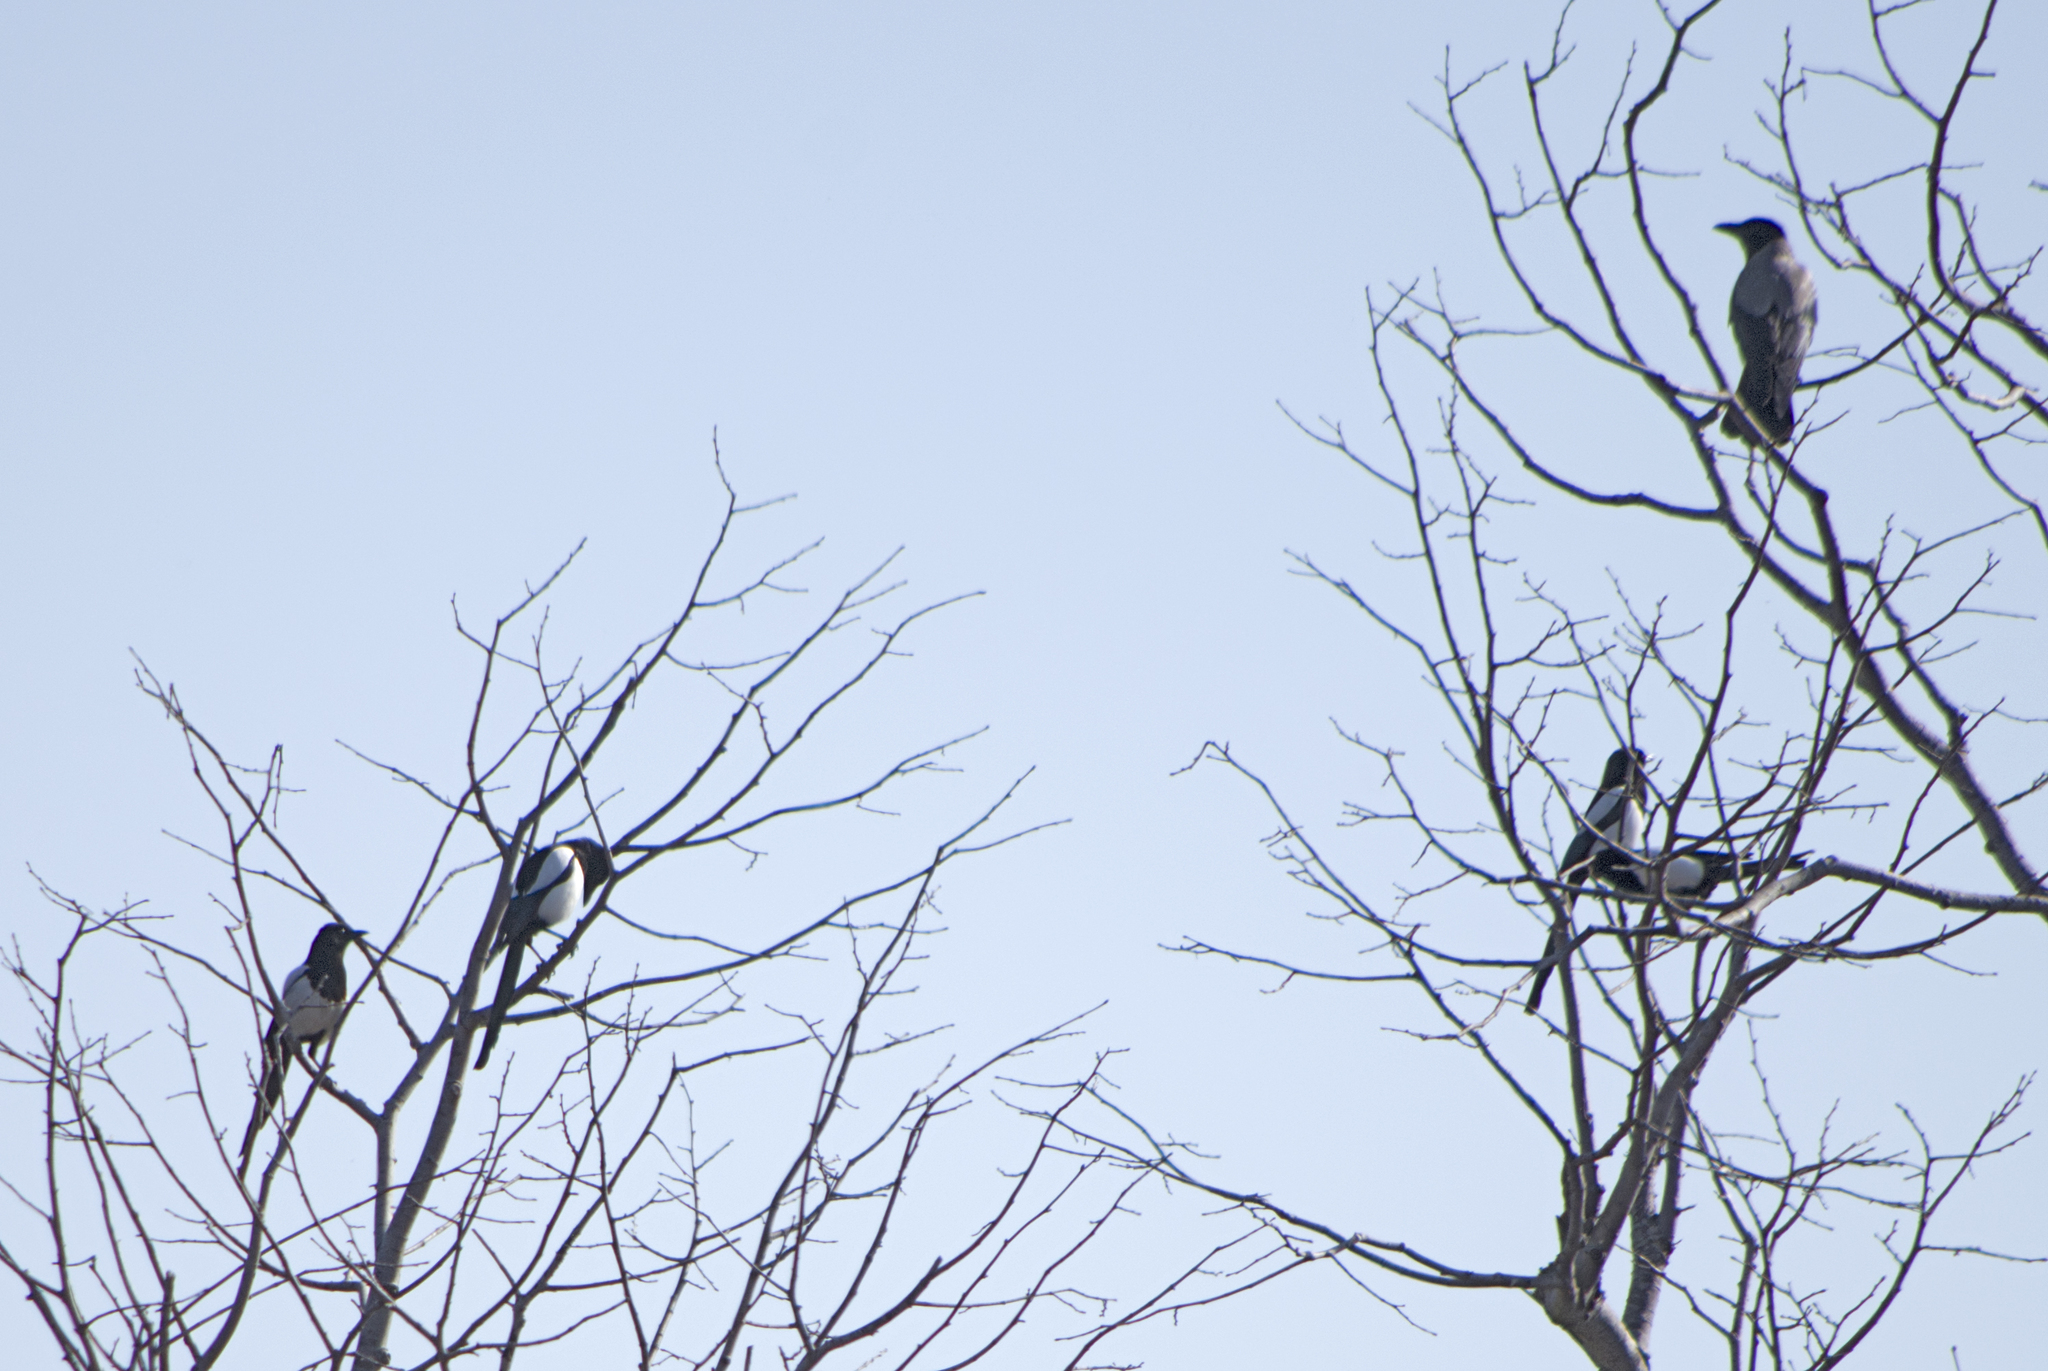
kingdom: Animalia
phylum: Chordata
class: Aves
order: Passeriformes
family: Corvidae
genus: Pica
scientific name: Pica pica
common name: Eurasian magpie
